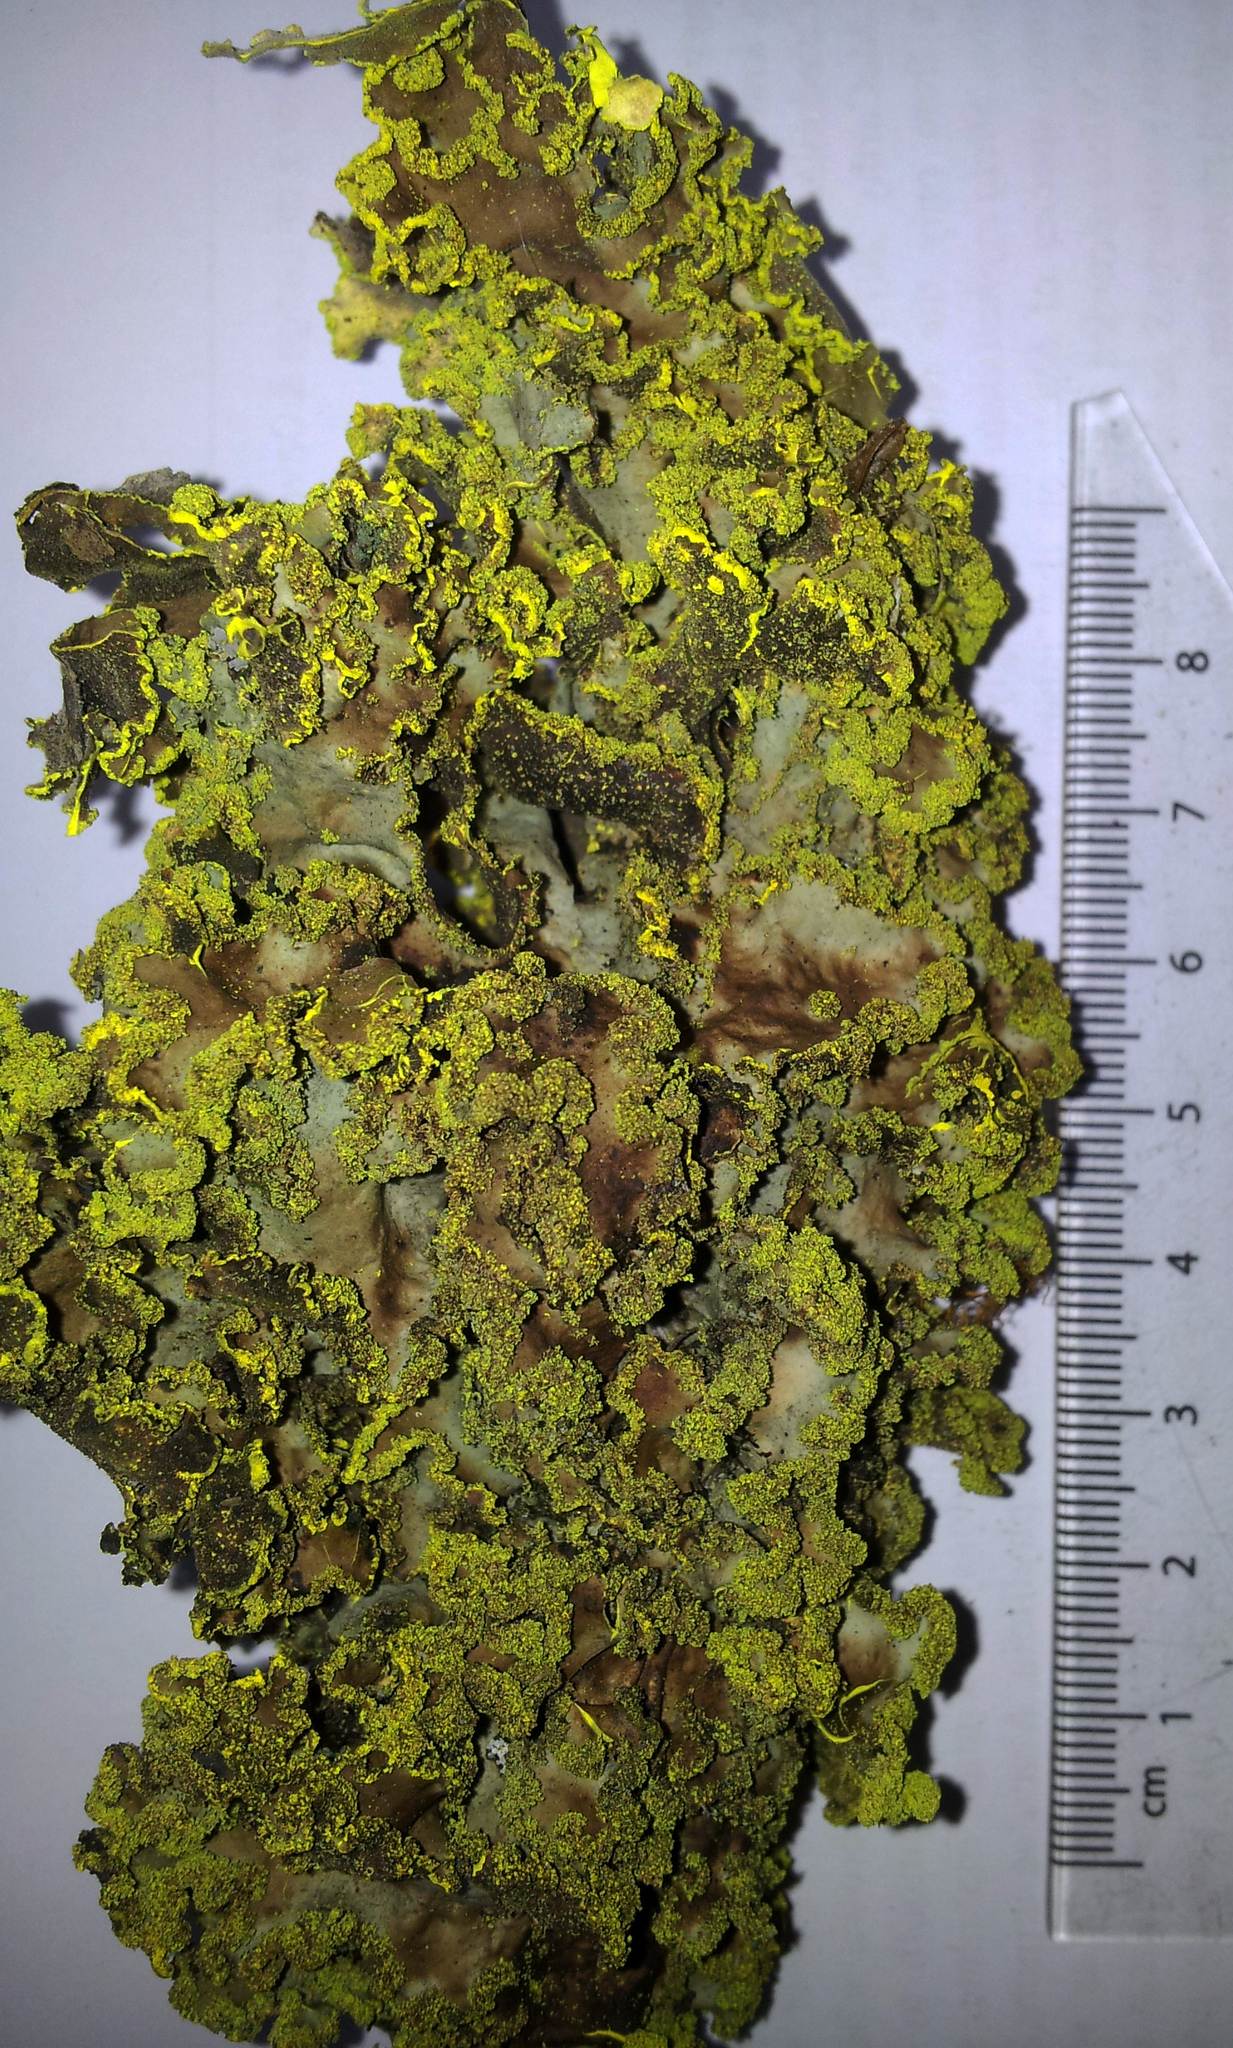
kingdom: Fungi
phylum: Ascomycota
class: Lecanoromycetes
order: Peltigerales
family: Lobariaceae
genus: Crocodia
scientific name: Crocodia poculifera
